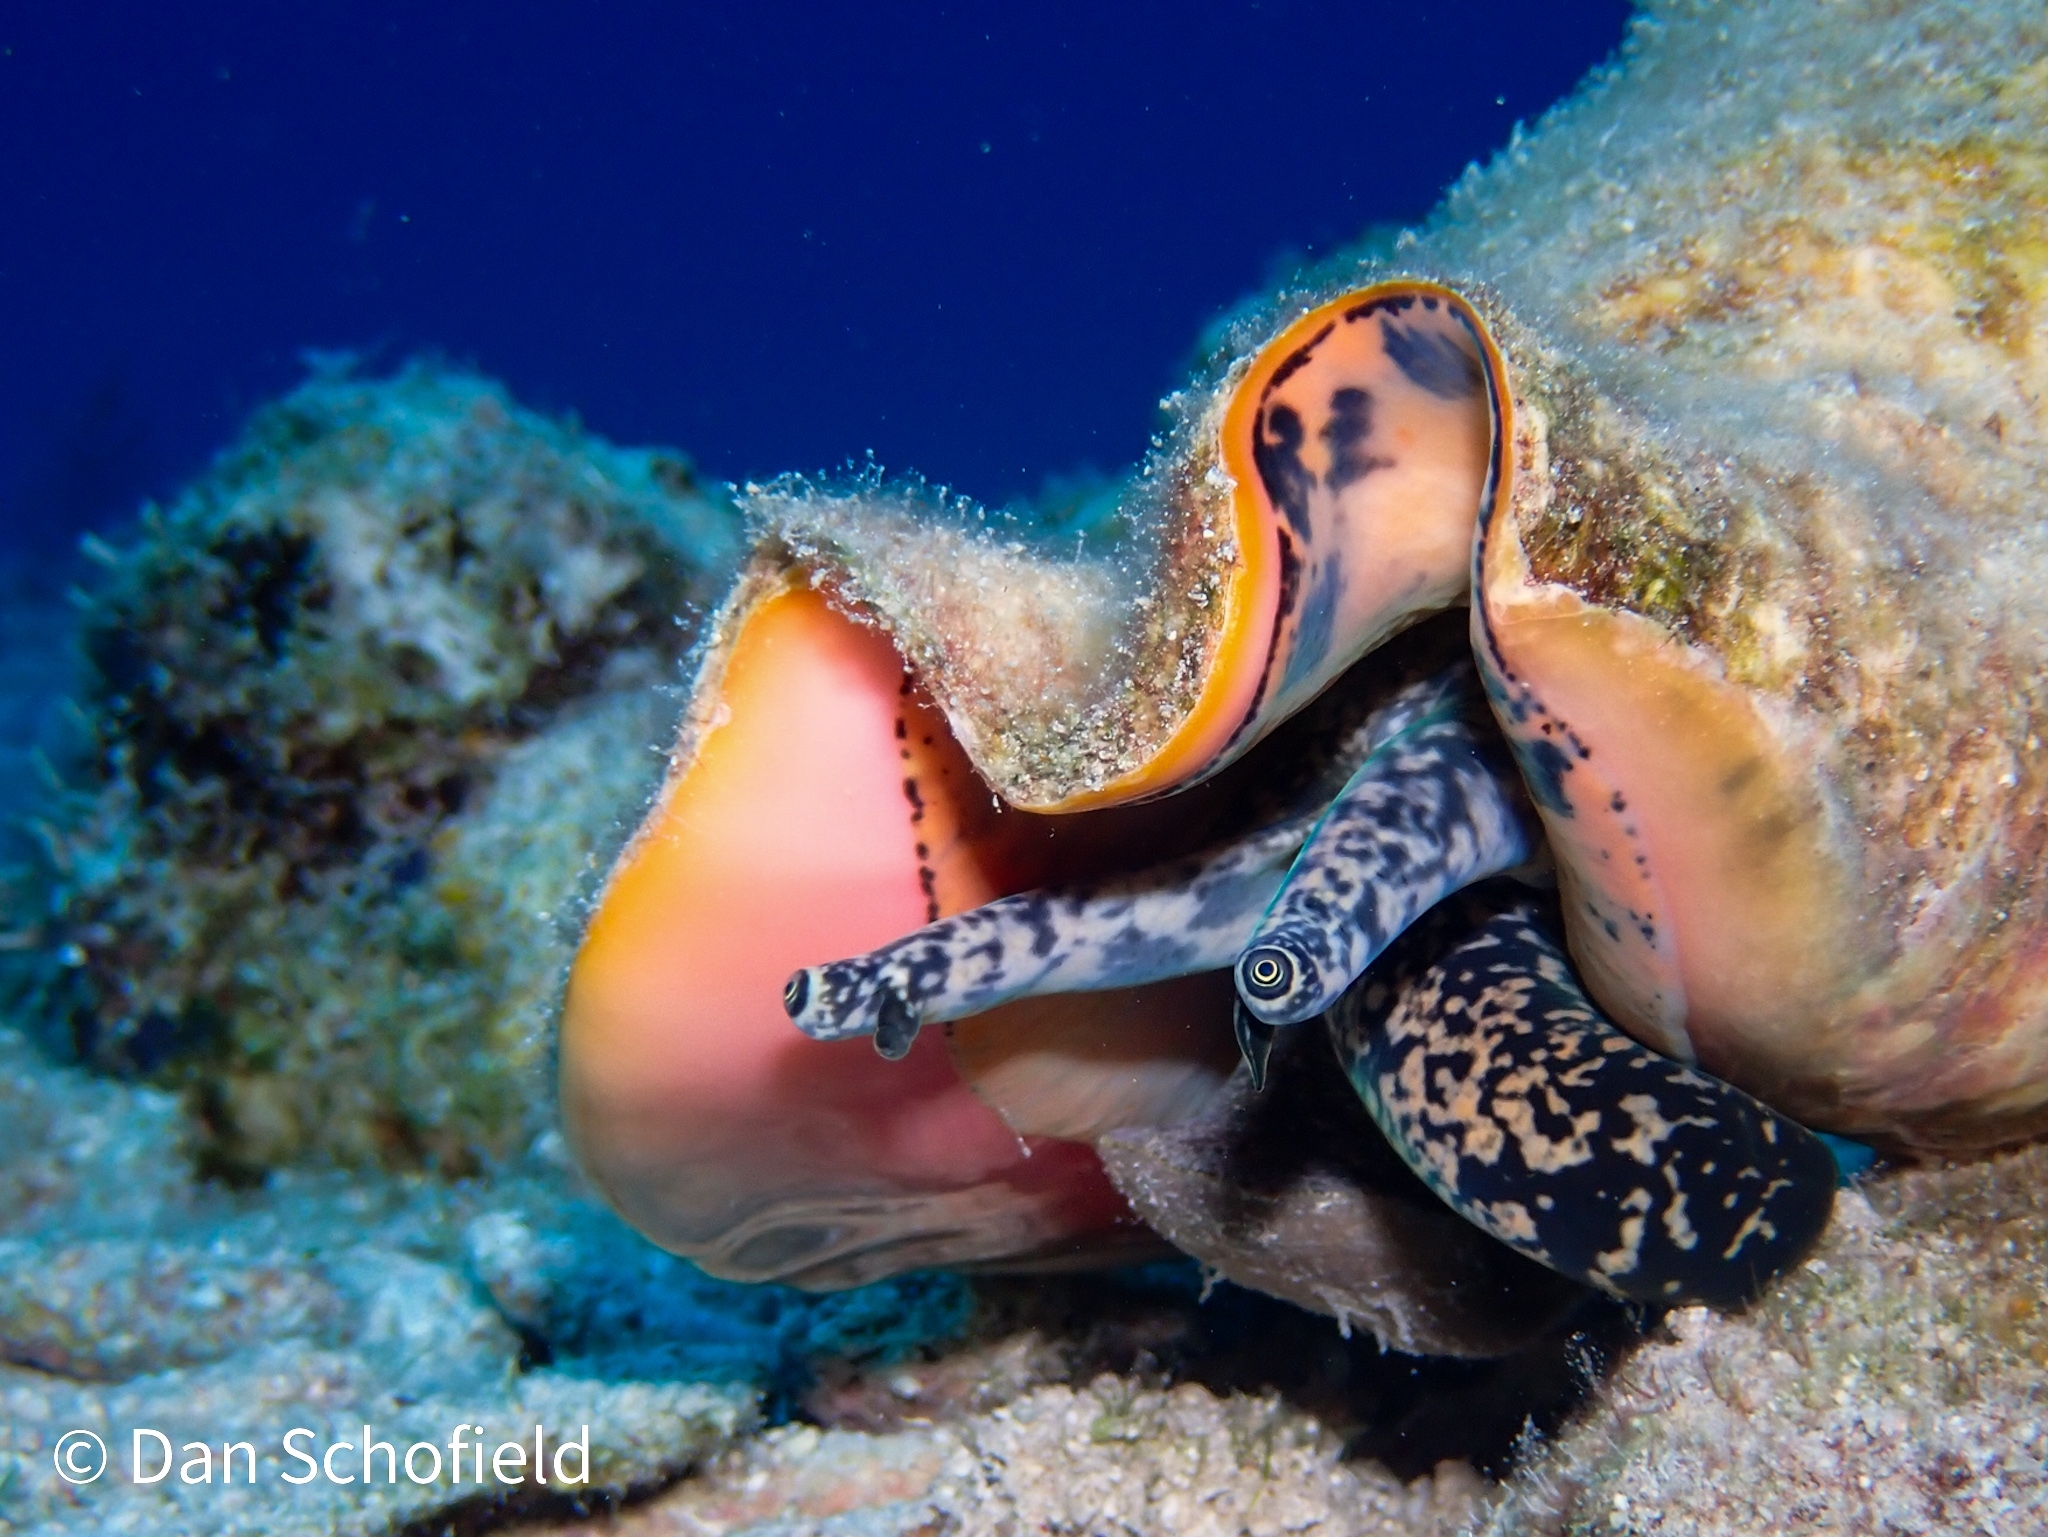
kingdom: Animalia
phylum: Mollusca
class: Gastropoda
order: Littorinimorpha
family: Strombidae
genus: Aliger
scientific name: Aliger gigas
